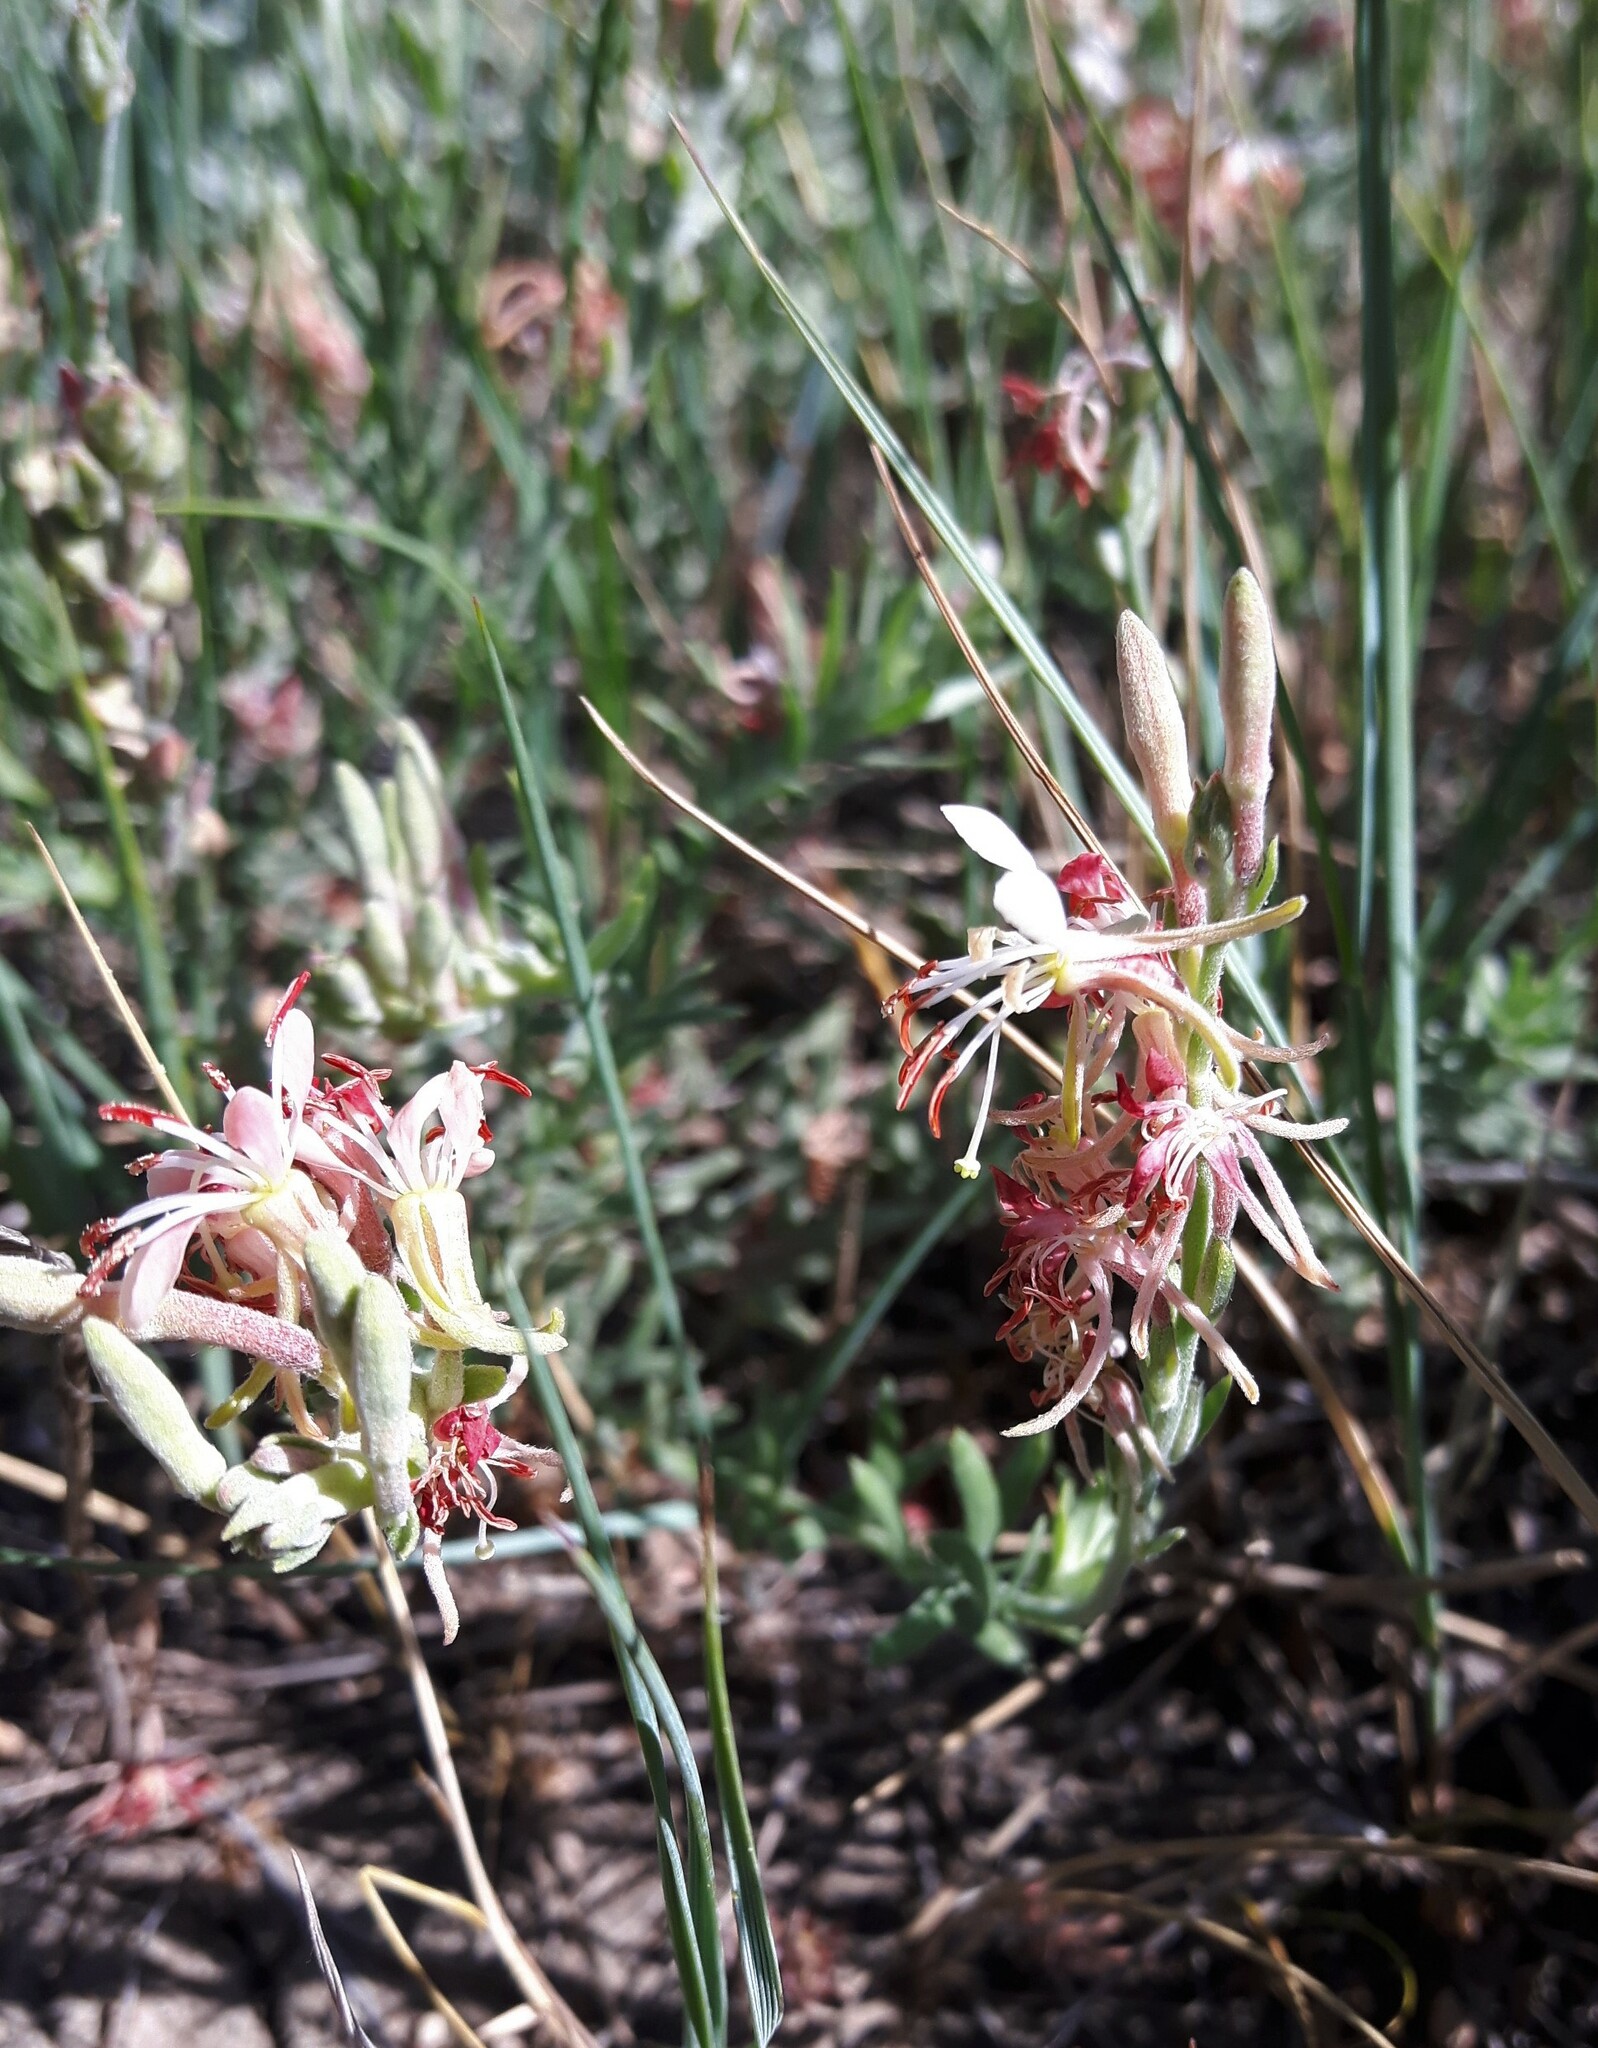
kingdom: Plantae
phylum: Tracheophyta
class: Magnoliopsida
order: Myrtales
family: Onagraceae
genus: Oenothera
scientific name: Oenothera suffrutescens
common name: Scarlet beeblossom
